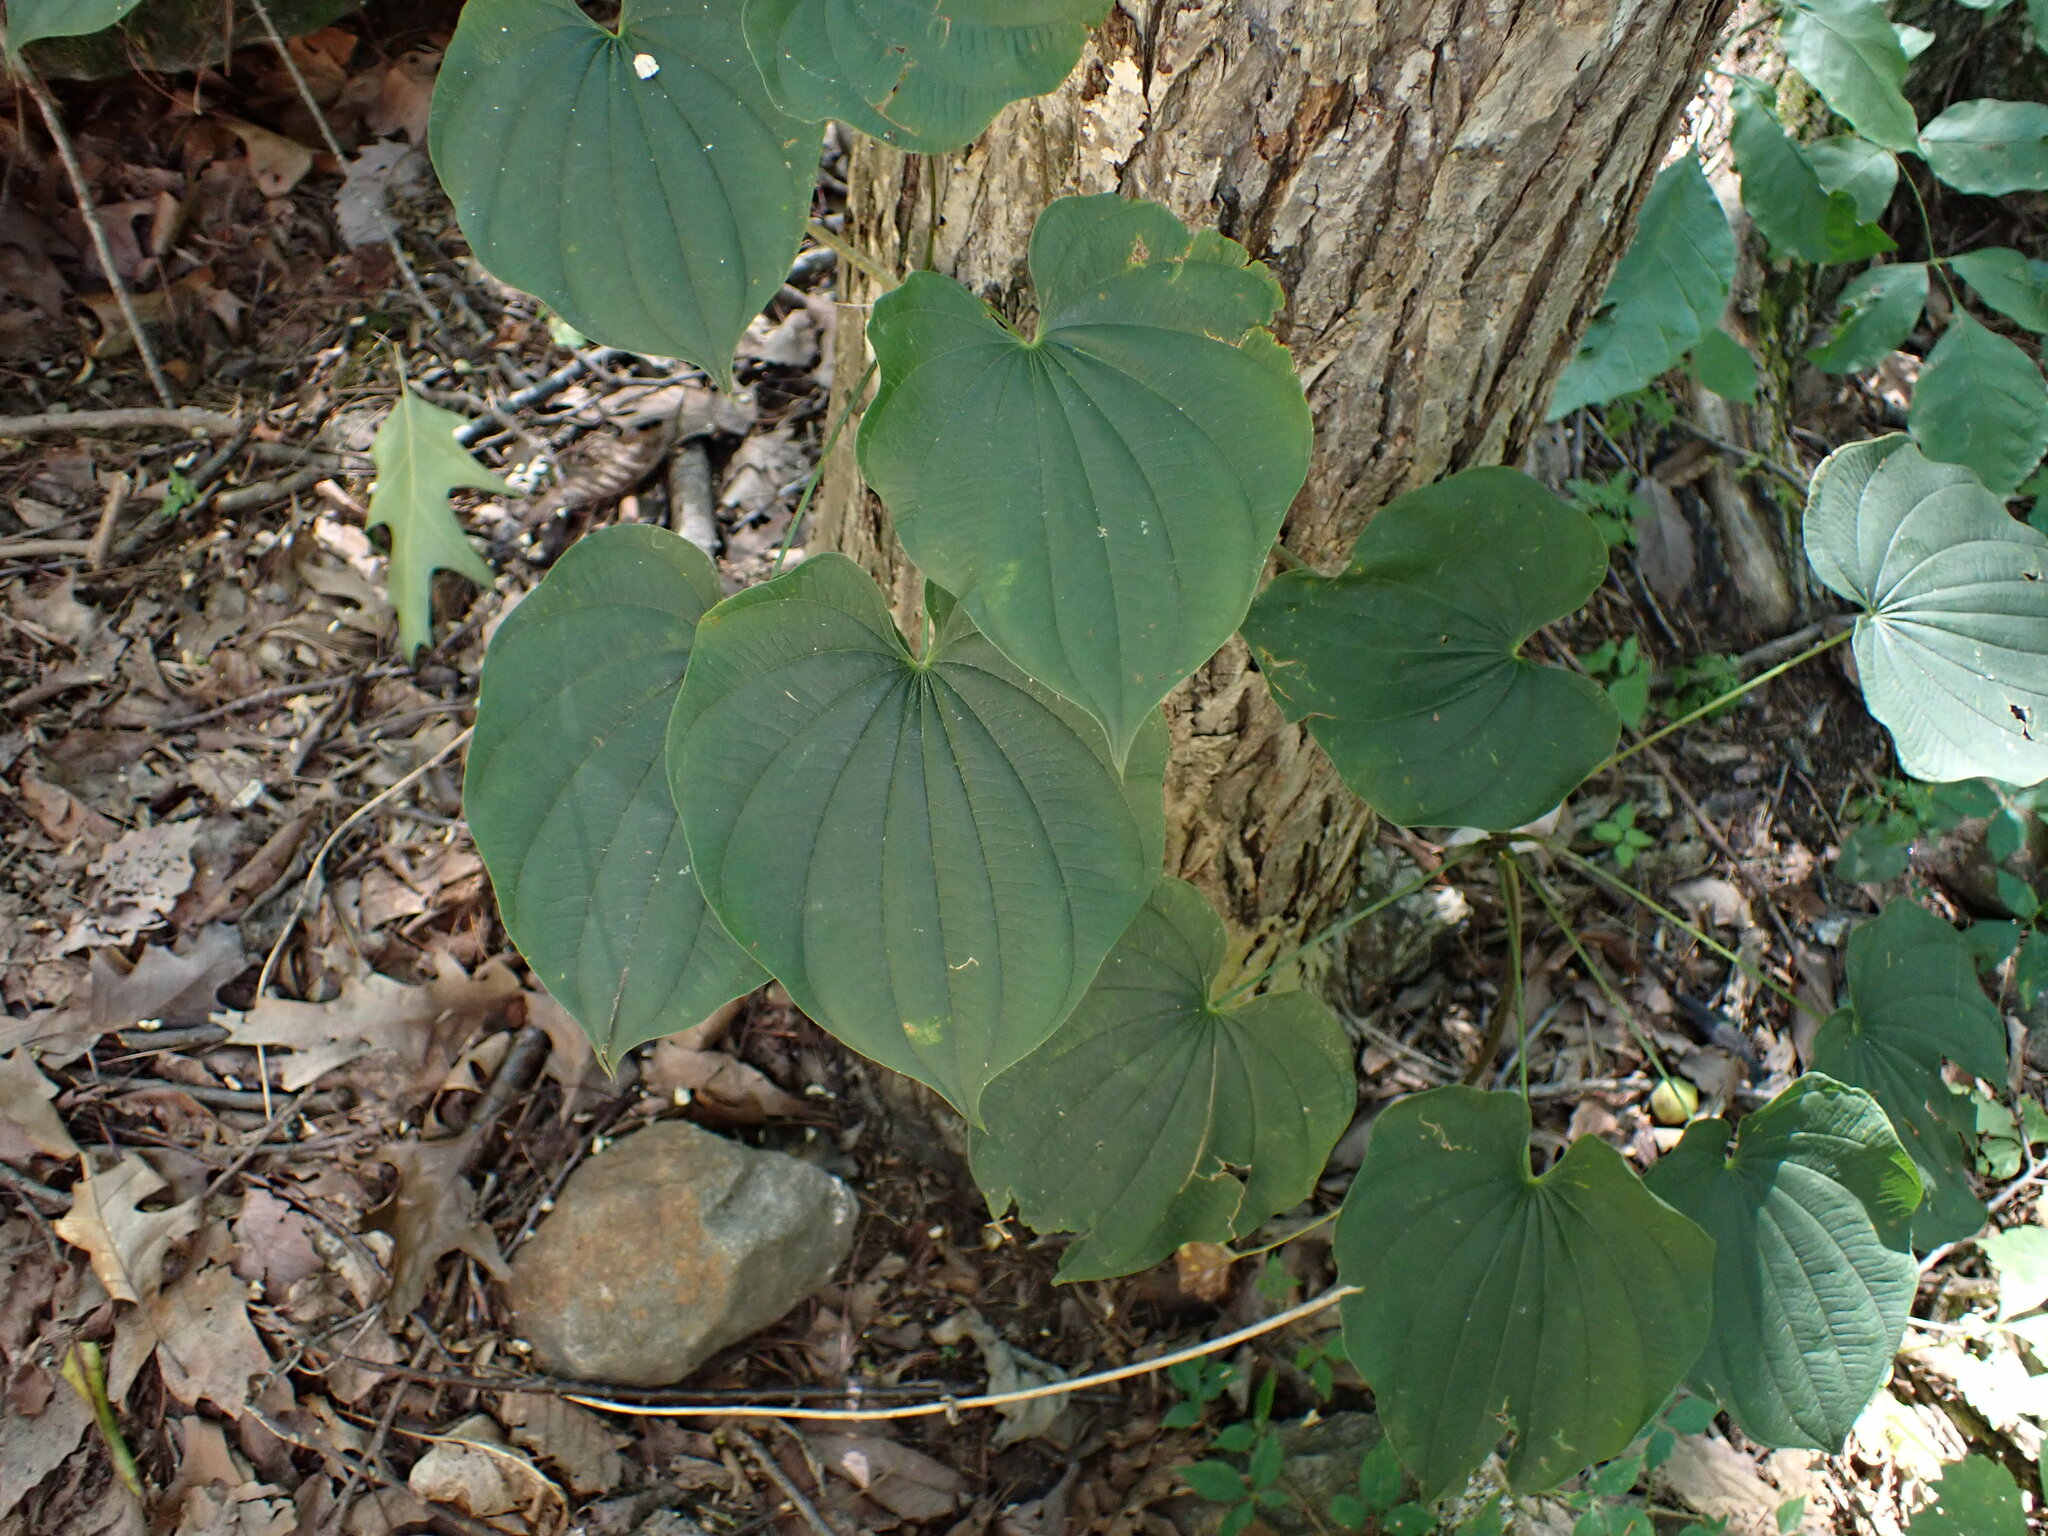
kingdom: Plantae
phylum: Tracheophyta
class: Liliopsida
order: Dioscoreales
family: Dioscoreaceae
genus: Dioscorea
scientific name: Dioscorea villosa
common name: Wild yam
